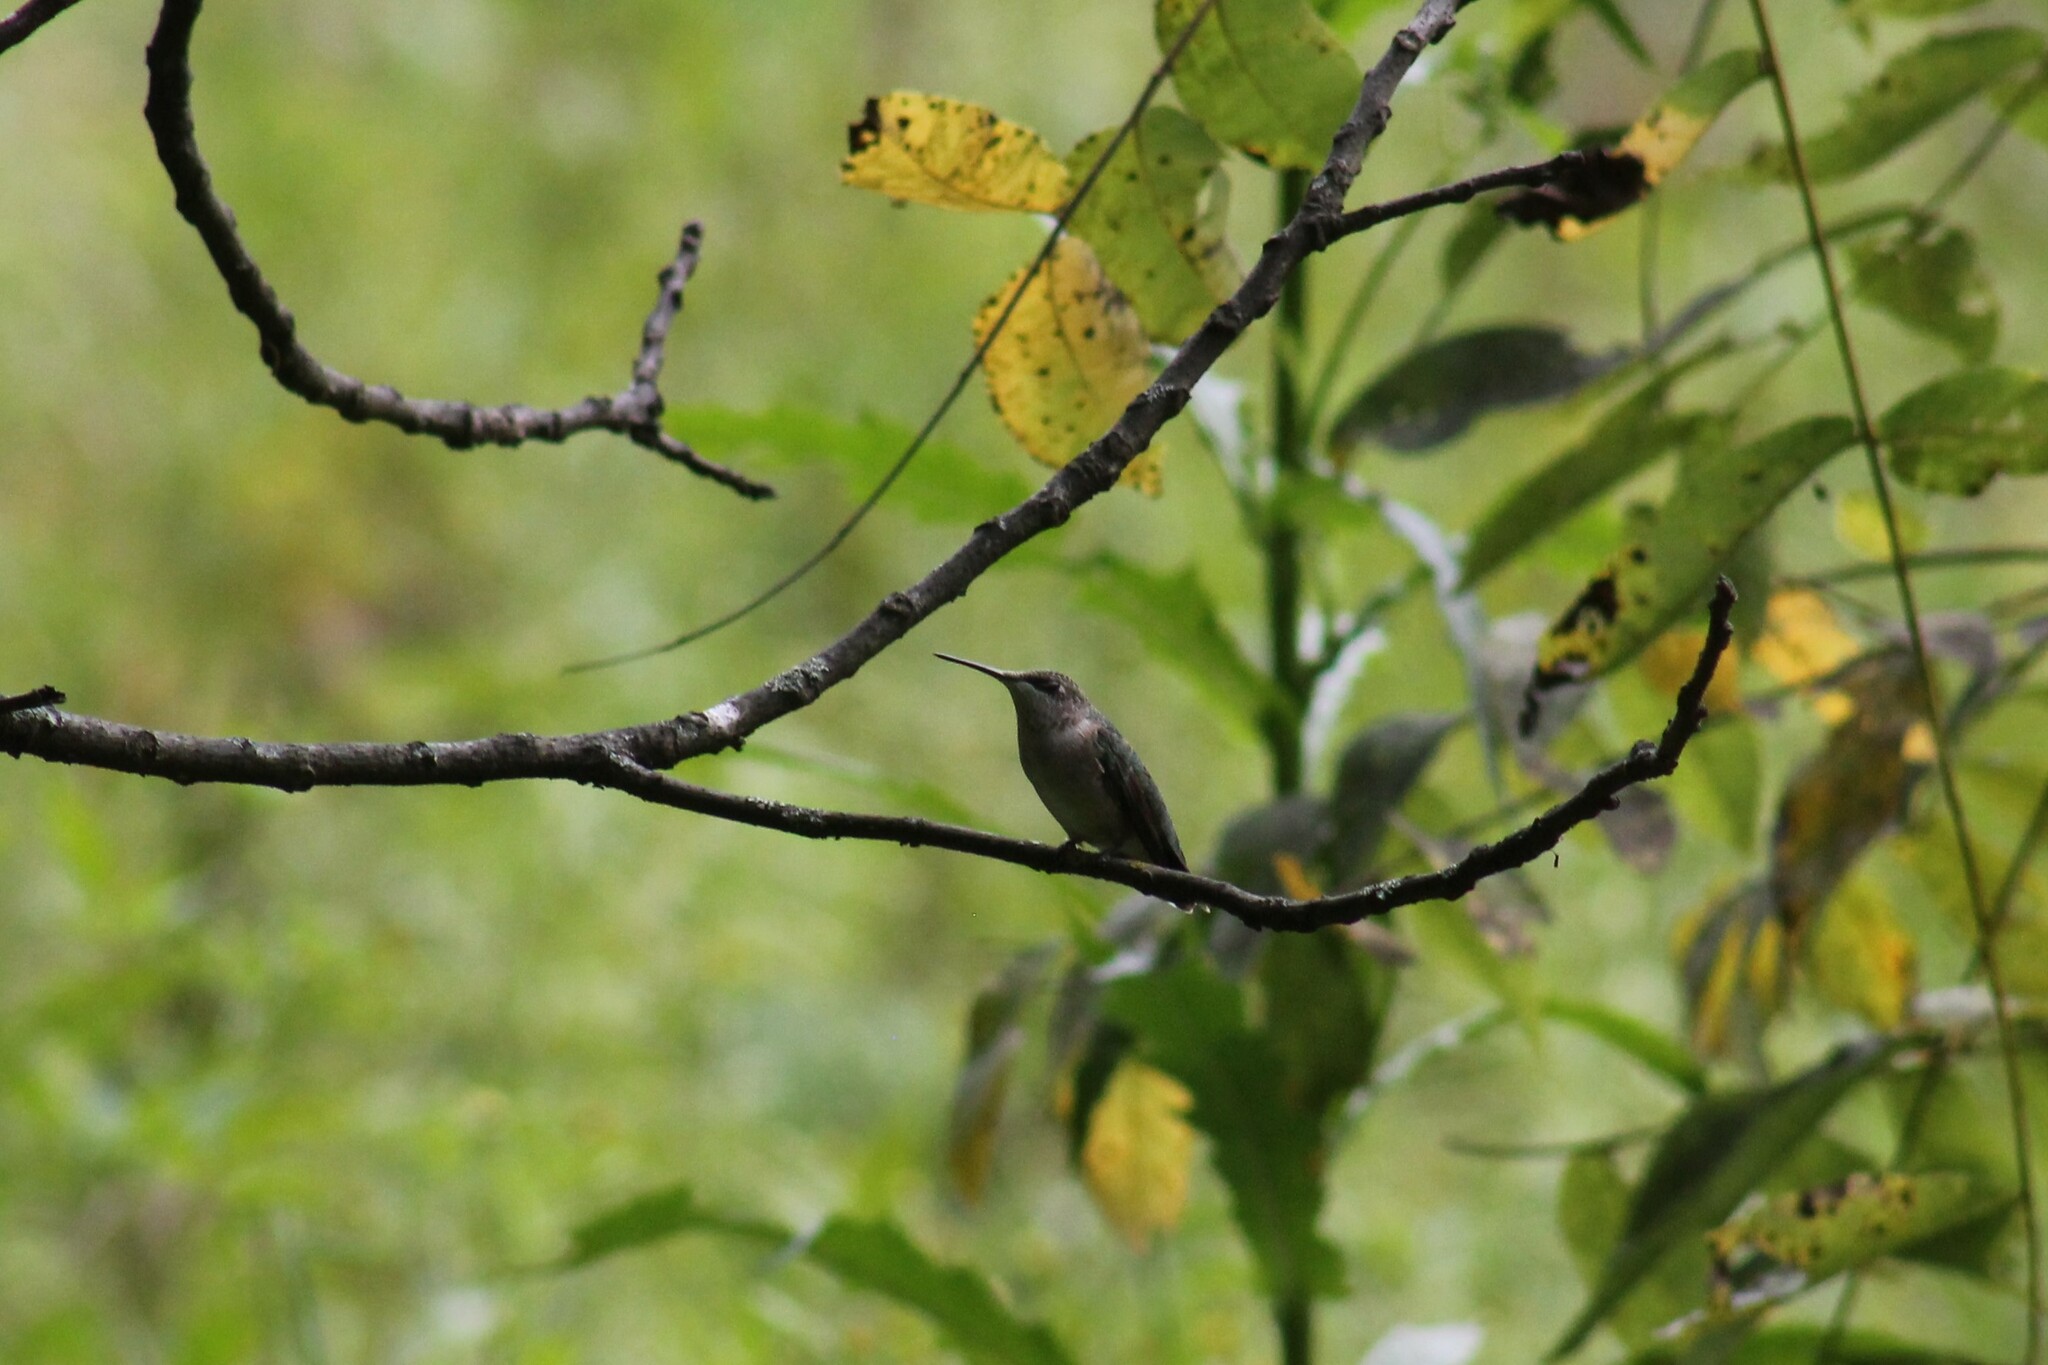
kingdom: Animalia
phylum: Chordata
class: Aves
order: Apodiformes
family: Trochilidae
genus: Archilochus
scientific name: Archilochus colubris
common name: Ruby-throated hummingbird
